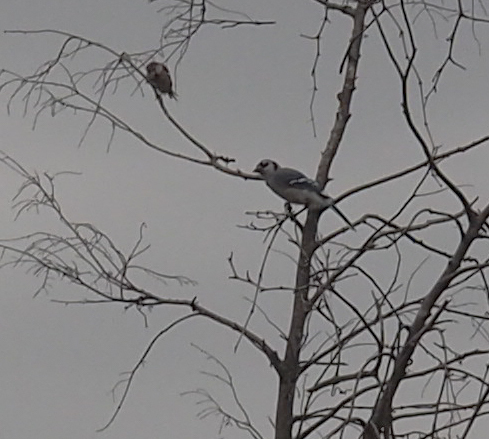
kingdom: Animalia
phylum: Chordata
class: Aves
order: Passeriformes
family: Corvidae
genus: Cyanocitta
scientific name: Cyanocitta cristata
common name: Blue jay
